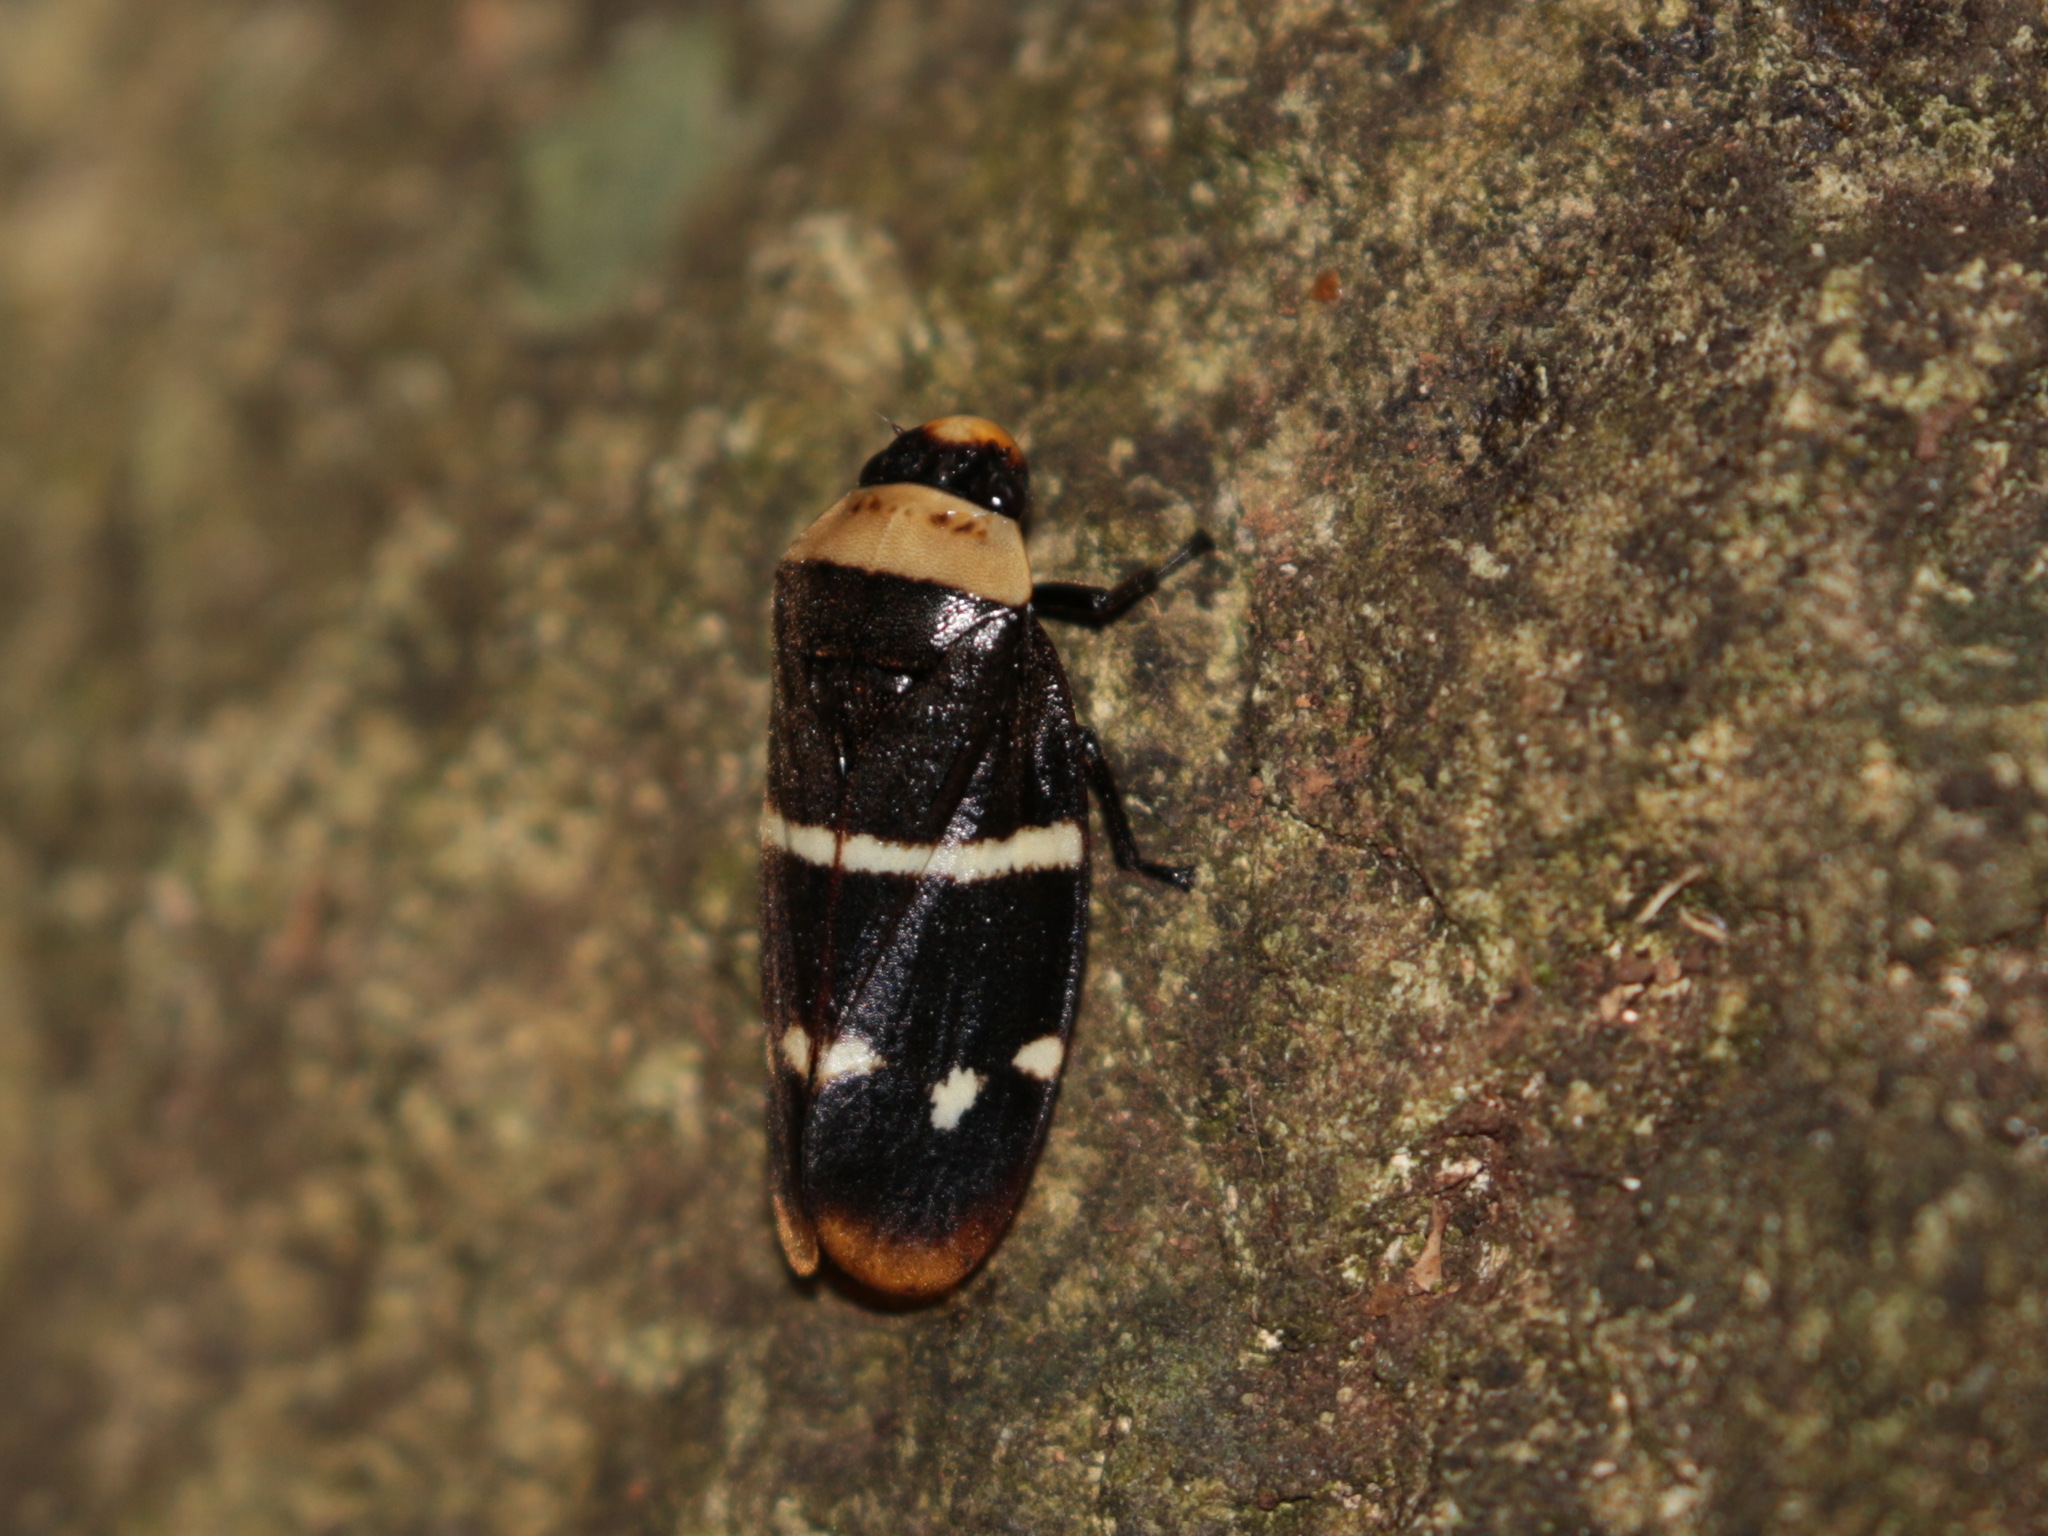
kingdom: Animalia
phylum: Arthropoda
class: Insecta
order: Hemiptera
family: Cercopidae
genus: Phymatostetha
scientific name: Phymatostetha limbata
